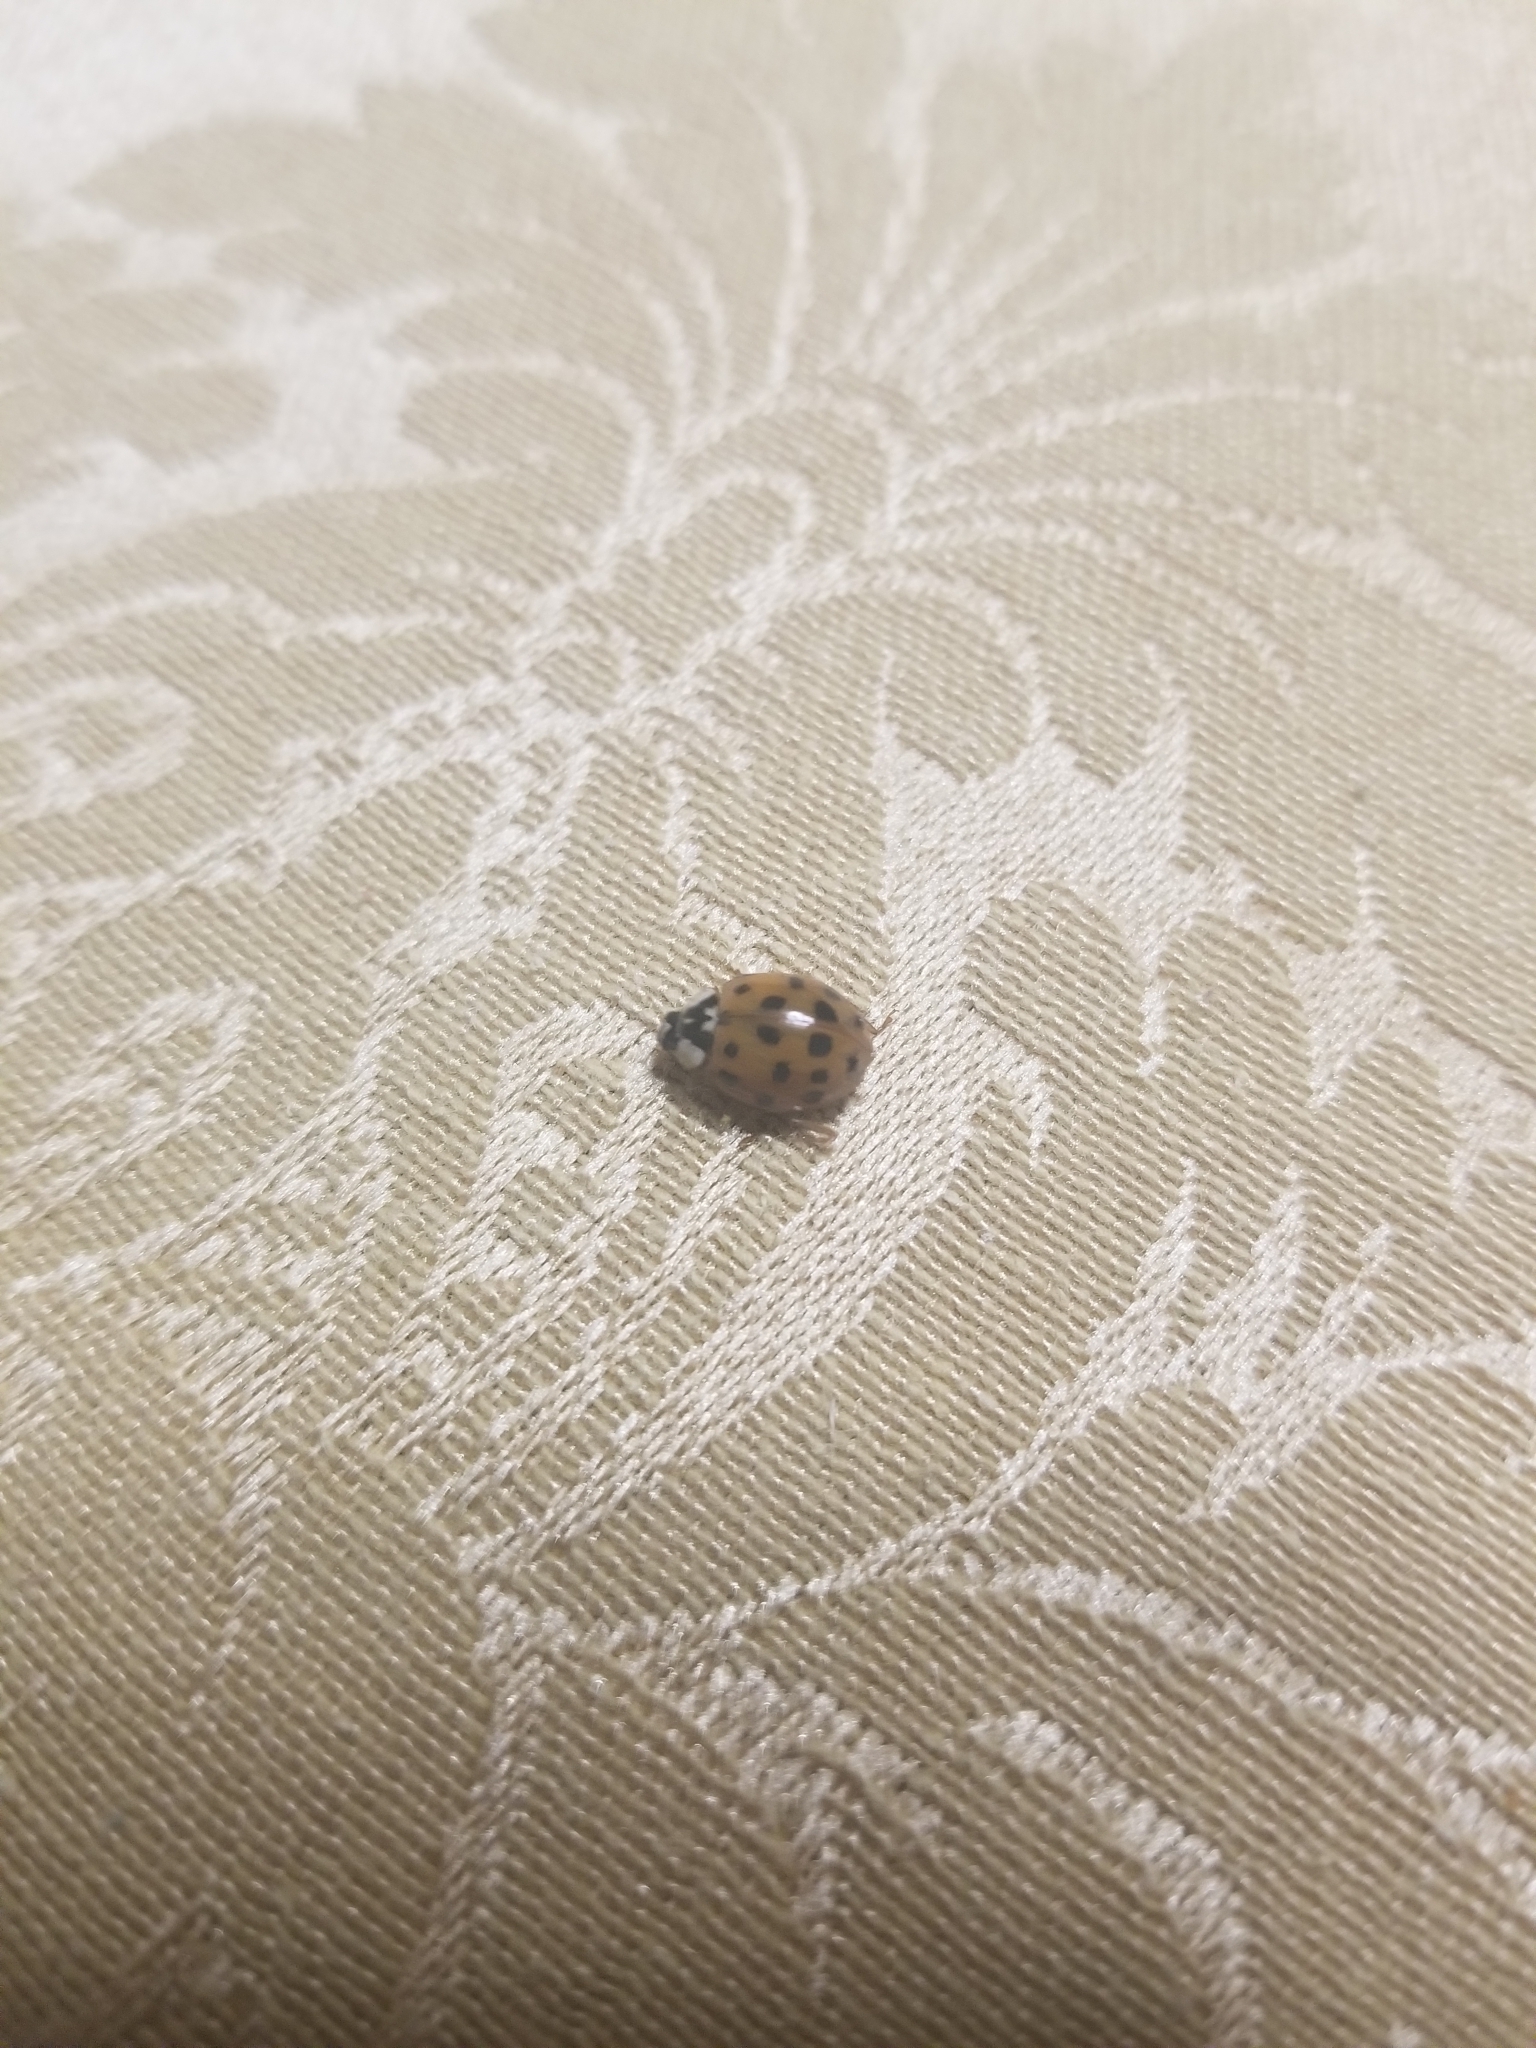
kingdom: Animalia
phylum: Arthropoda
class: Insecta
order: Coleoptera
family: Coccinellidae
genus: Harmonia
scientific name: Harmonia axyridis
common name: Harlequin ladybird
